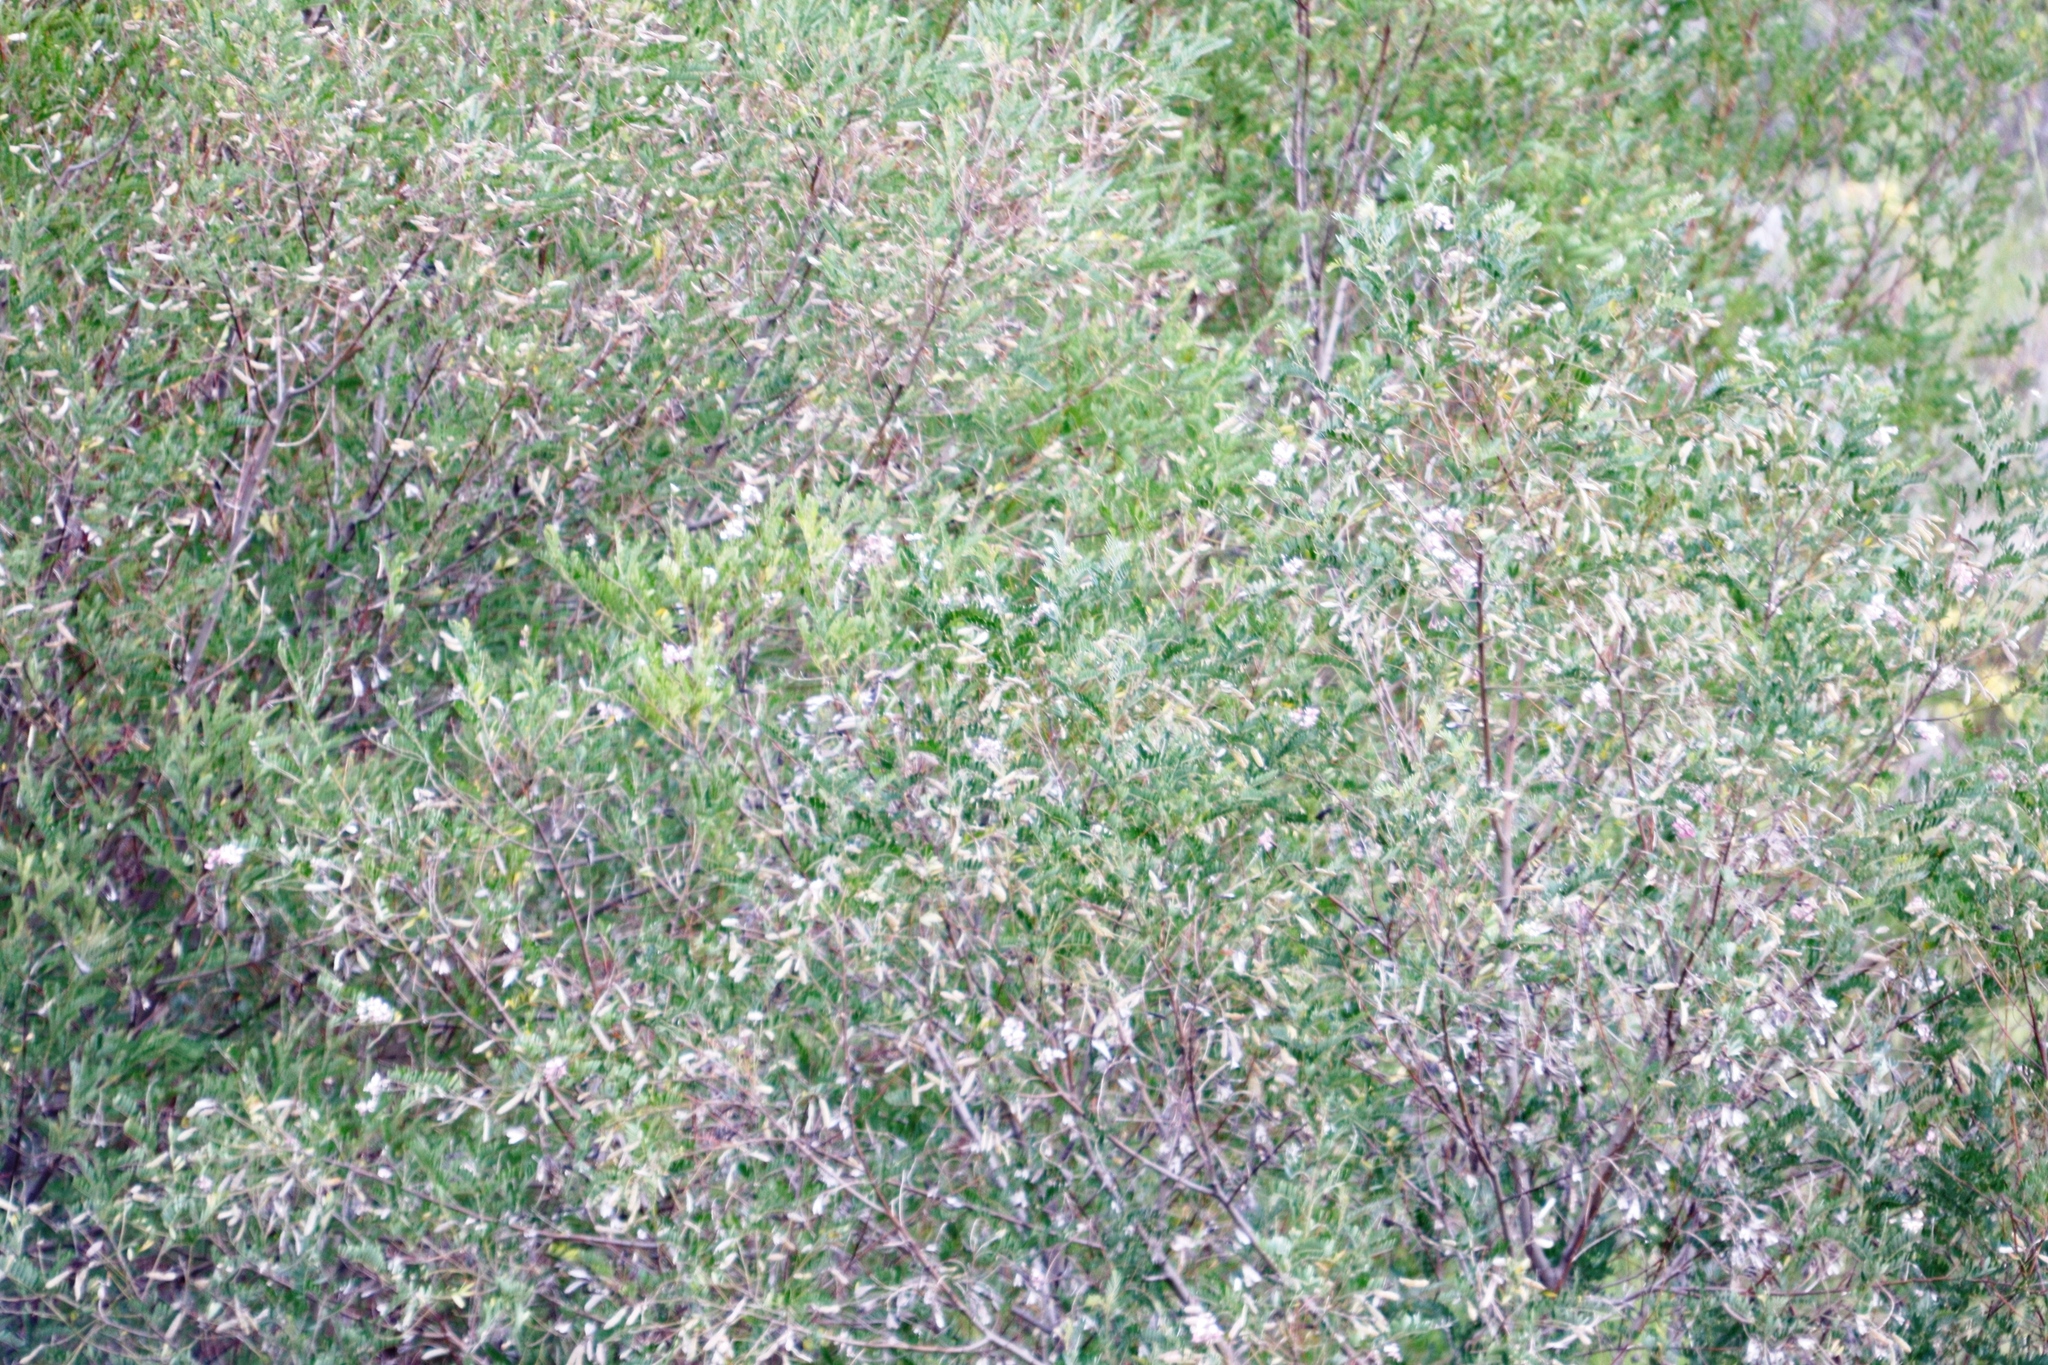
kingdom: Plantae
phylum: Tracheophyta
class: Magnoliopsida
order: Fabales
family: Fabaceae
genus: Virgilia
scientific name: Virgilia oroboides
